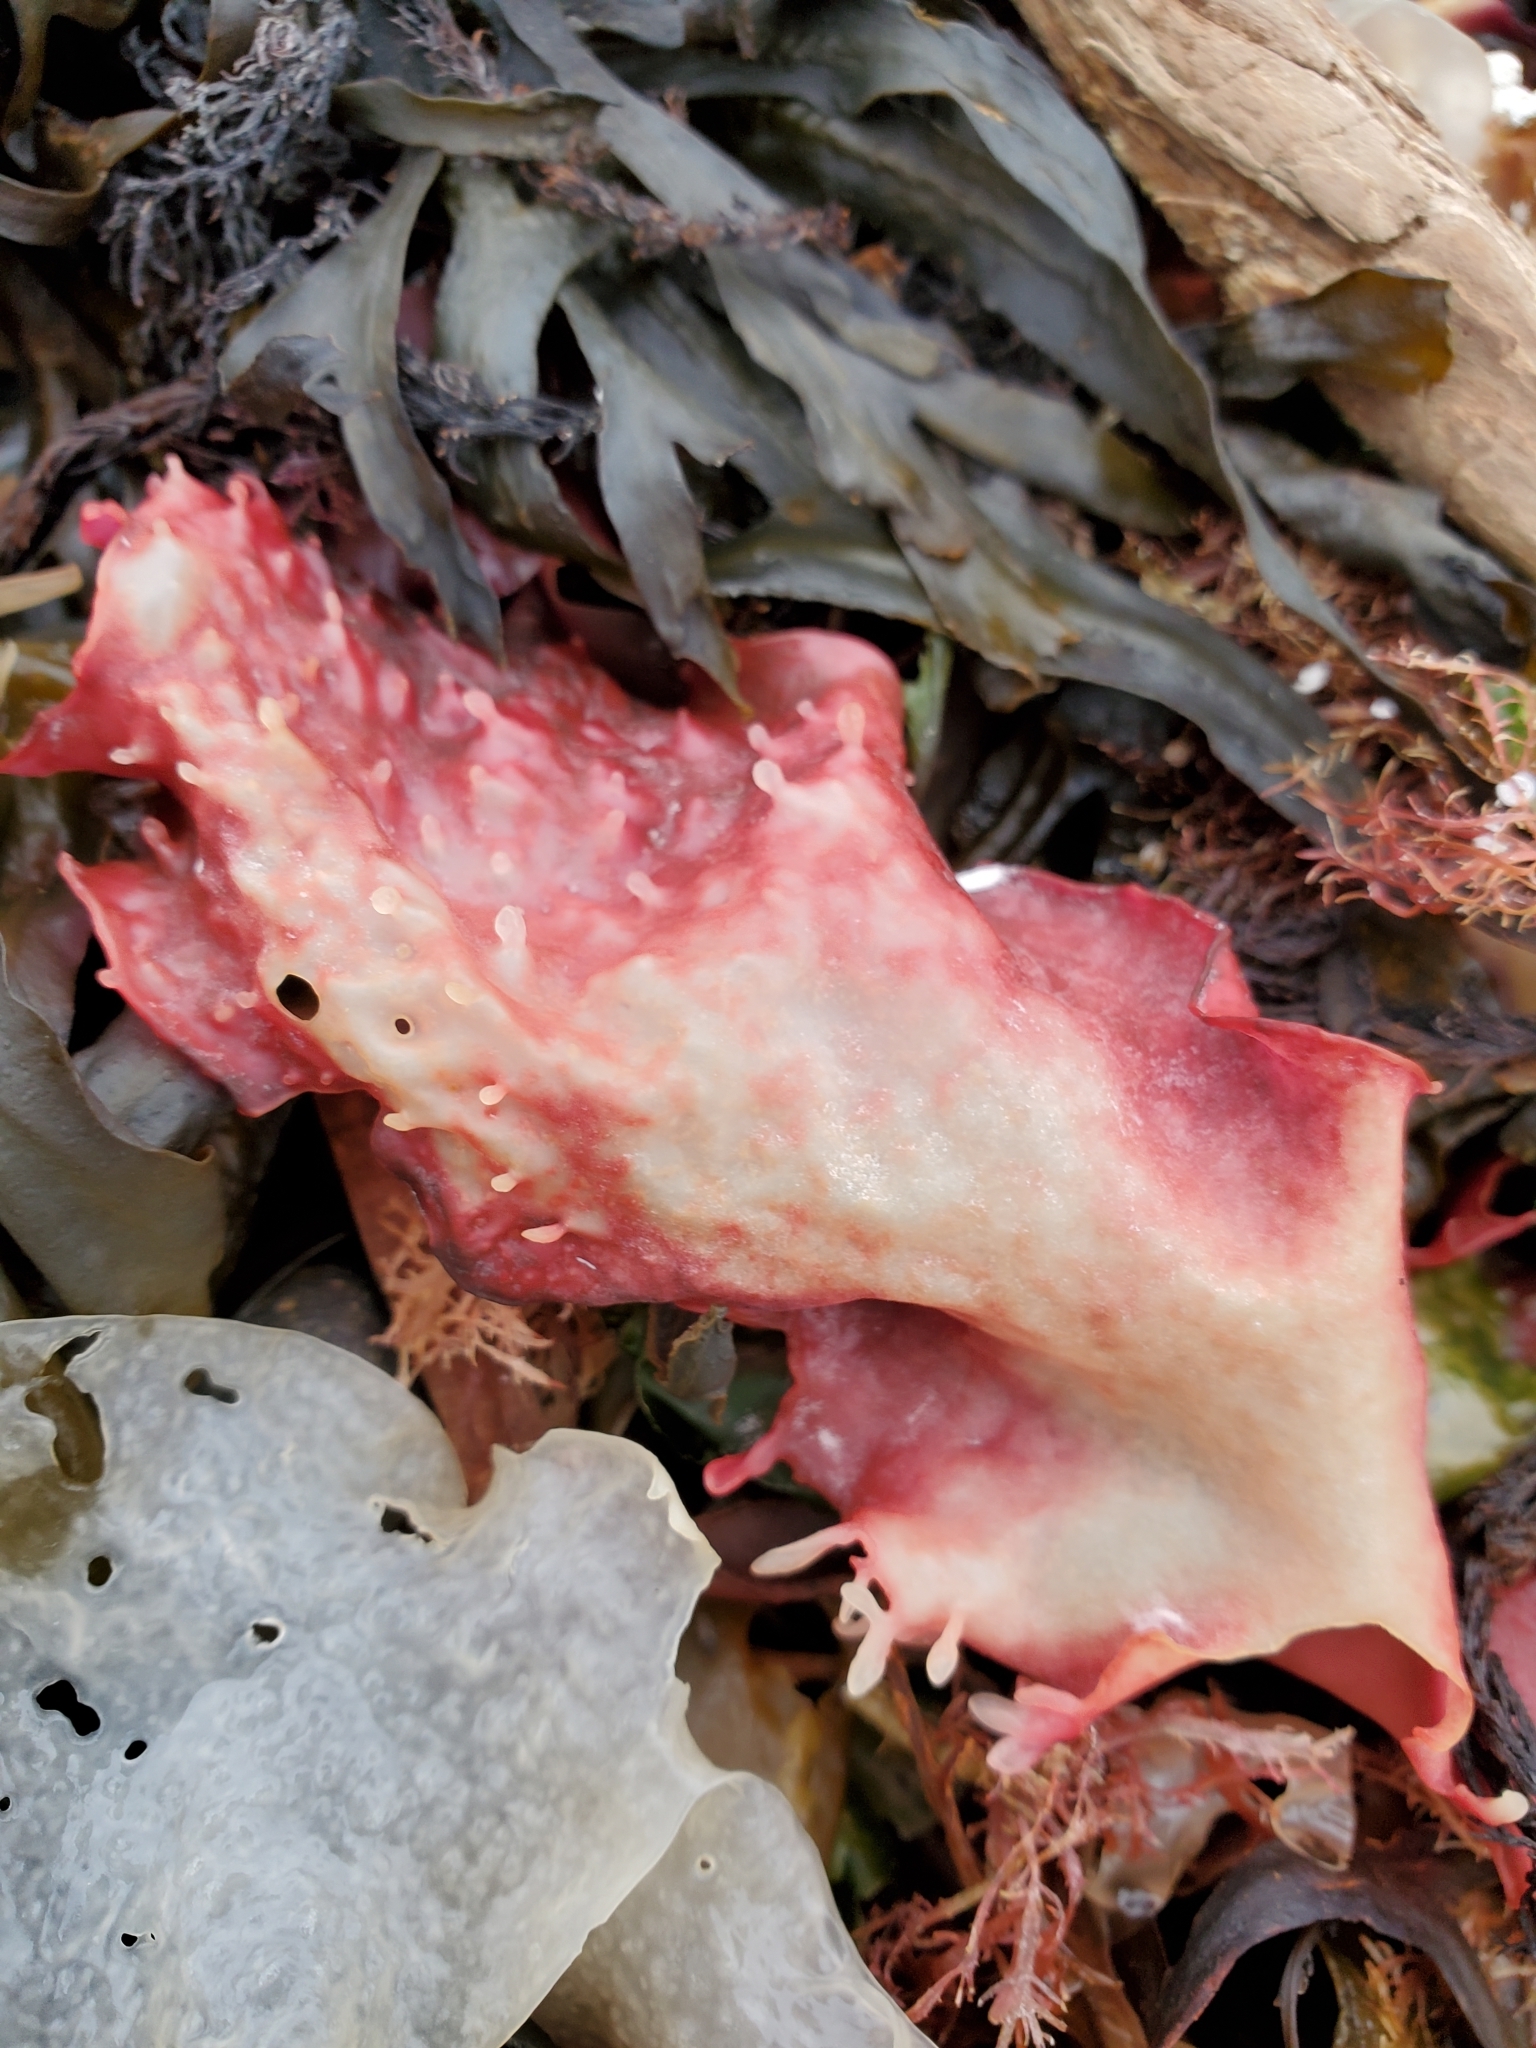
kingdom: Plantae
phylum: Rhodophyta
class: Florideophyceae
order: Gigartinales
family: Gigartinaceae
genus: Chondracanthus
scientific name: Chondracanthus exasperatus
